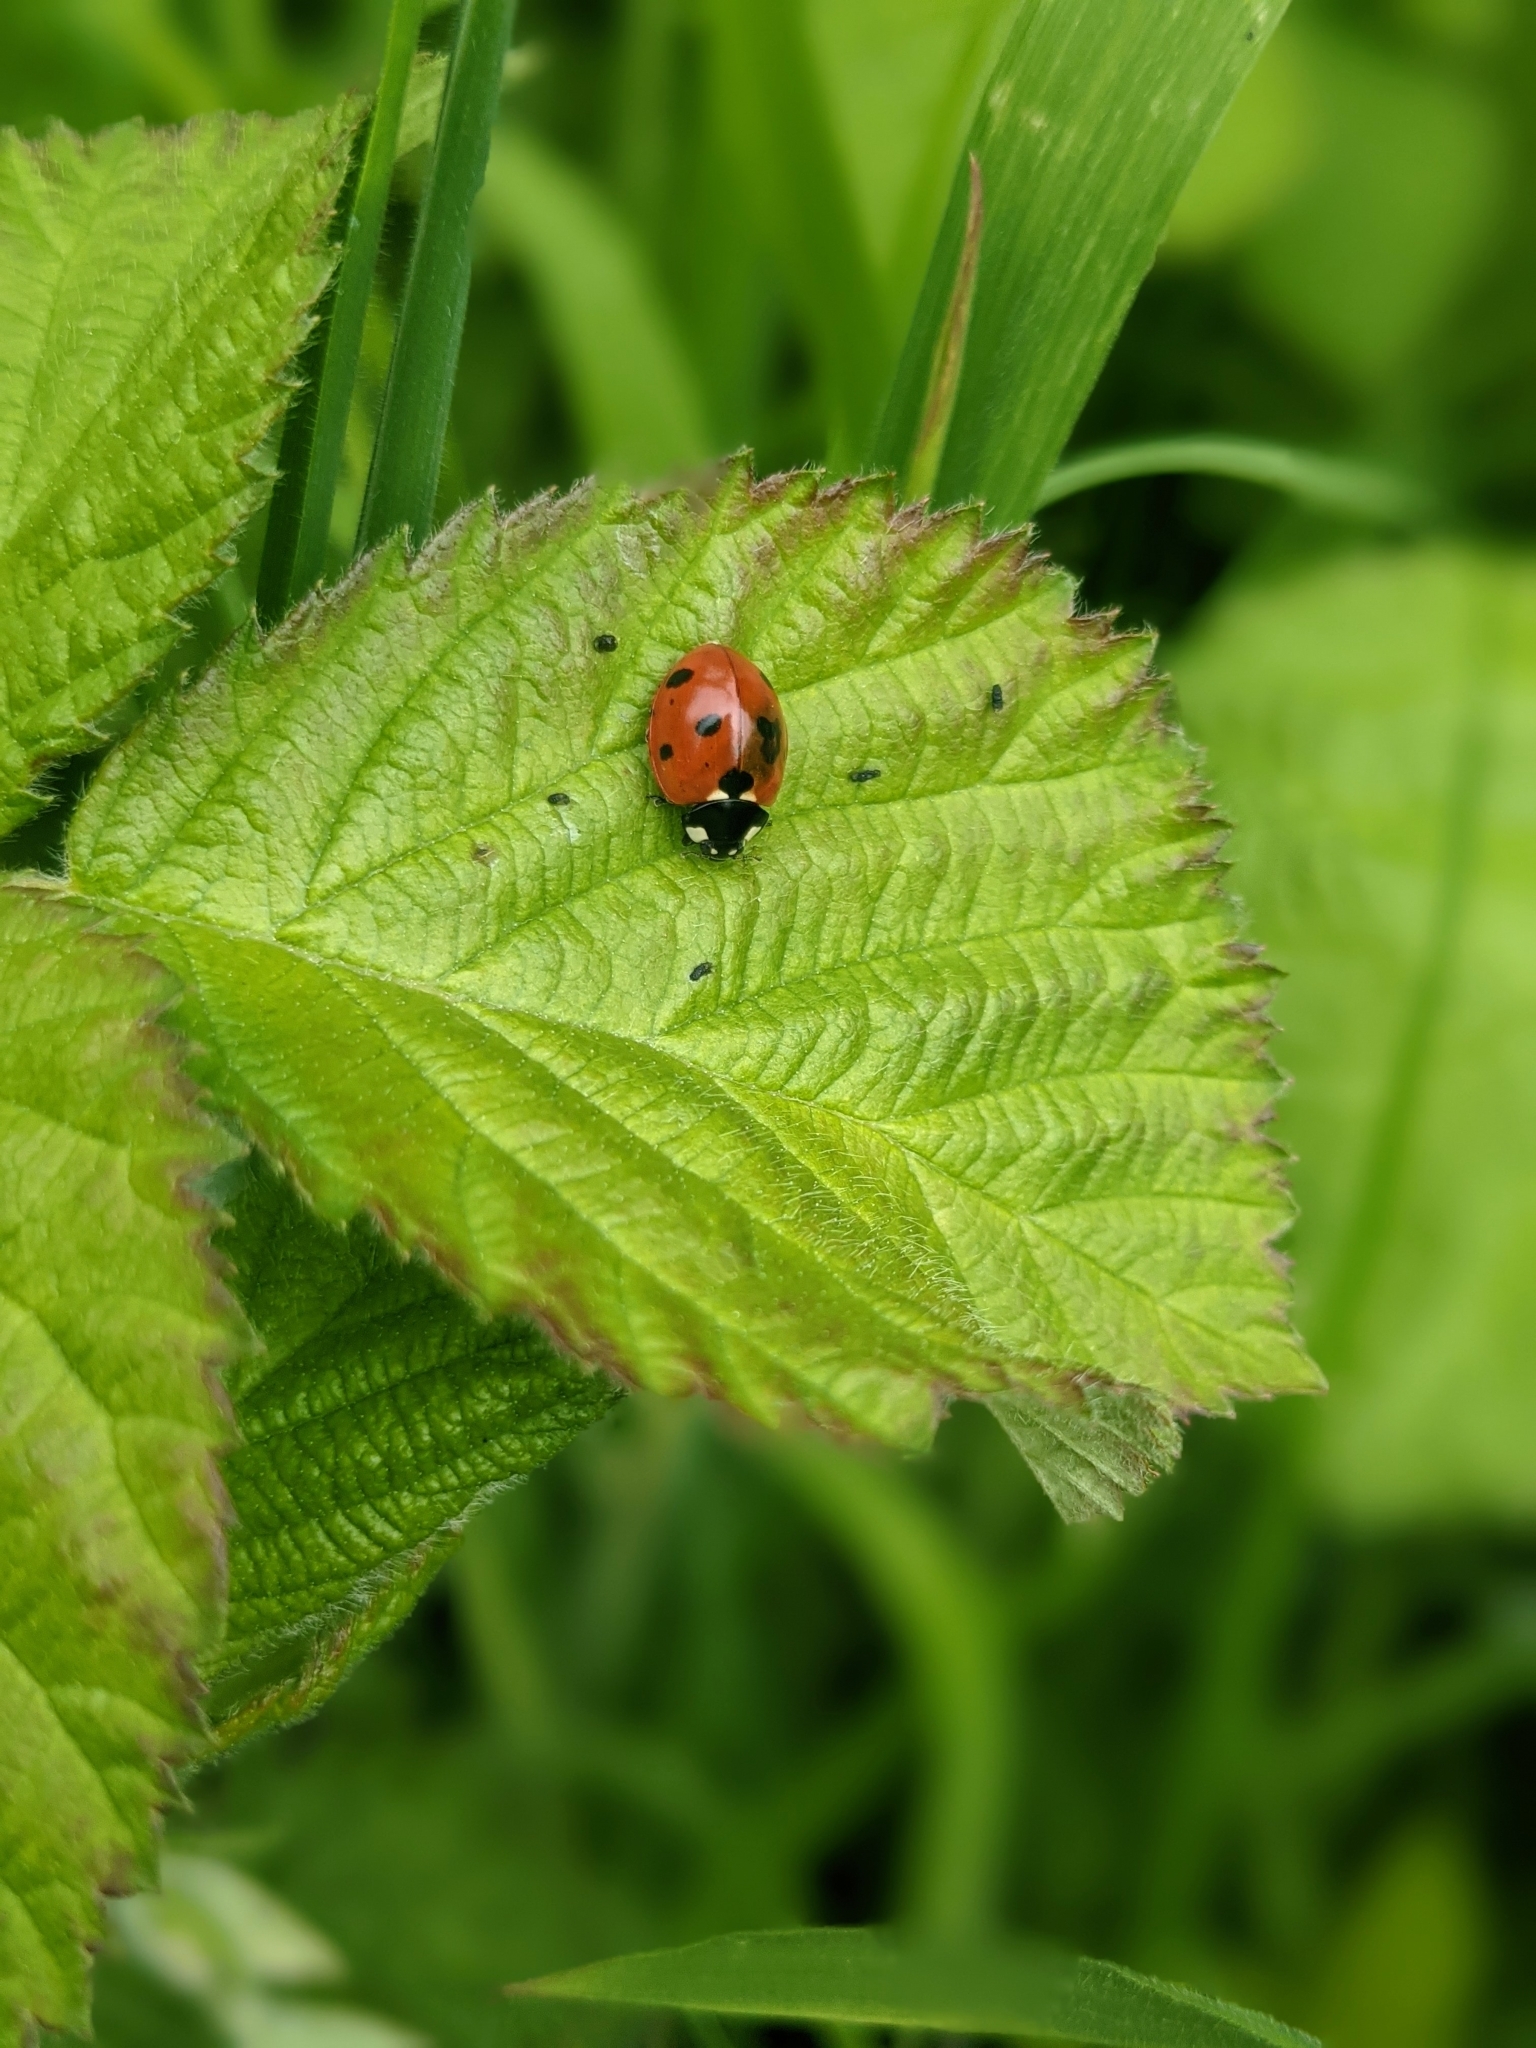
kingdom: Animalia
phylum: Arthropoda
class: Insecta
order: Coleoptera
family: Coccinellidae
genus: Coccinella
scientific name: Coccinella septempunctata
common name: Sevenspotted lady beetle
